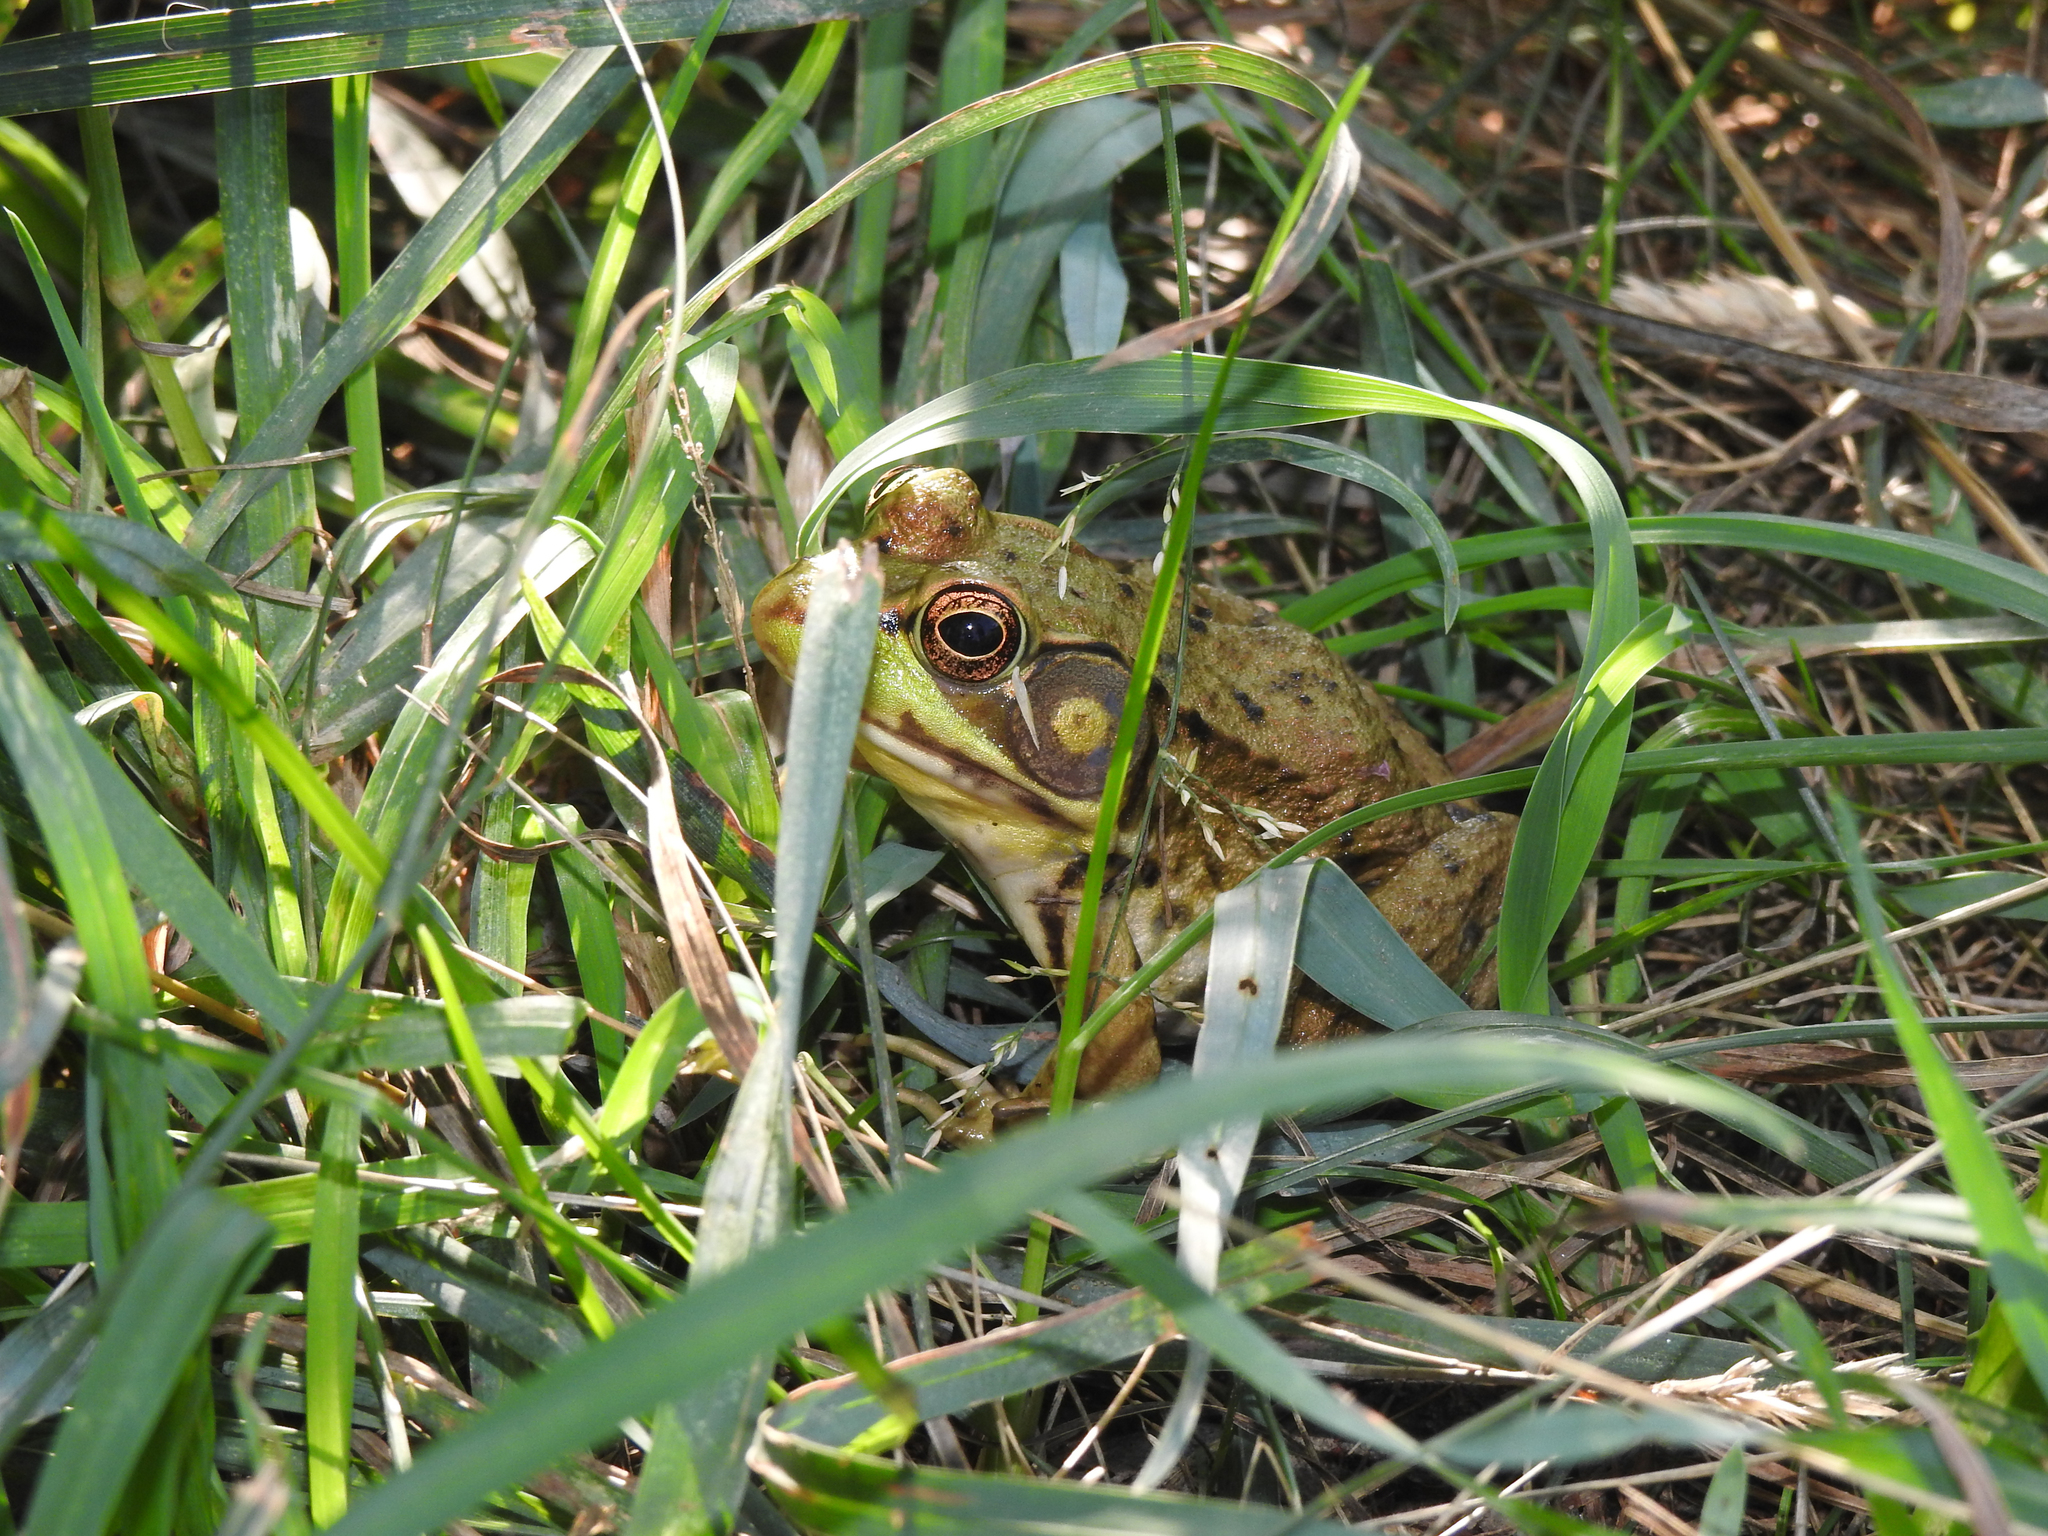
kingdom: Animalia
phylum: Chordata
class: Amphibia
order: Anura
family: Ranidae
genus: Lithobates
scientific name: Lithobates clamitans
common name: Green frog
